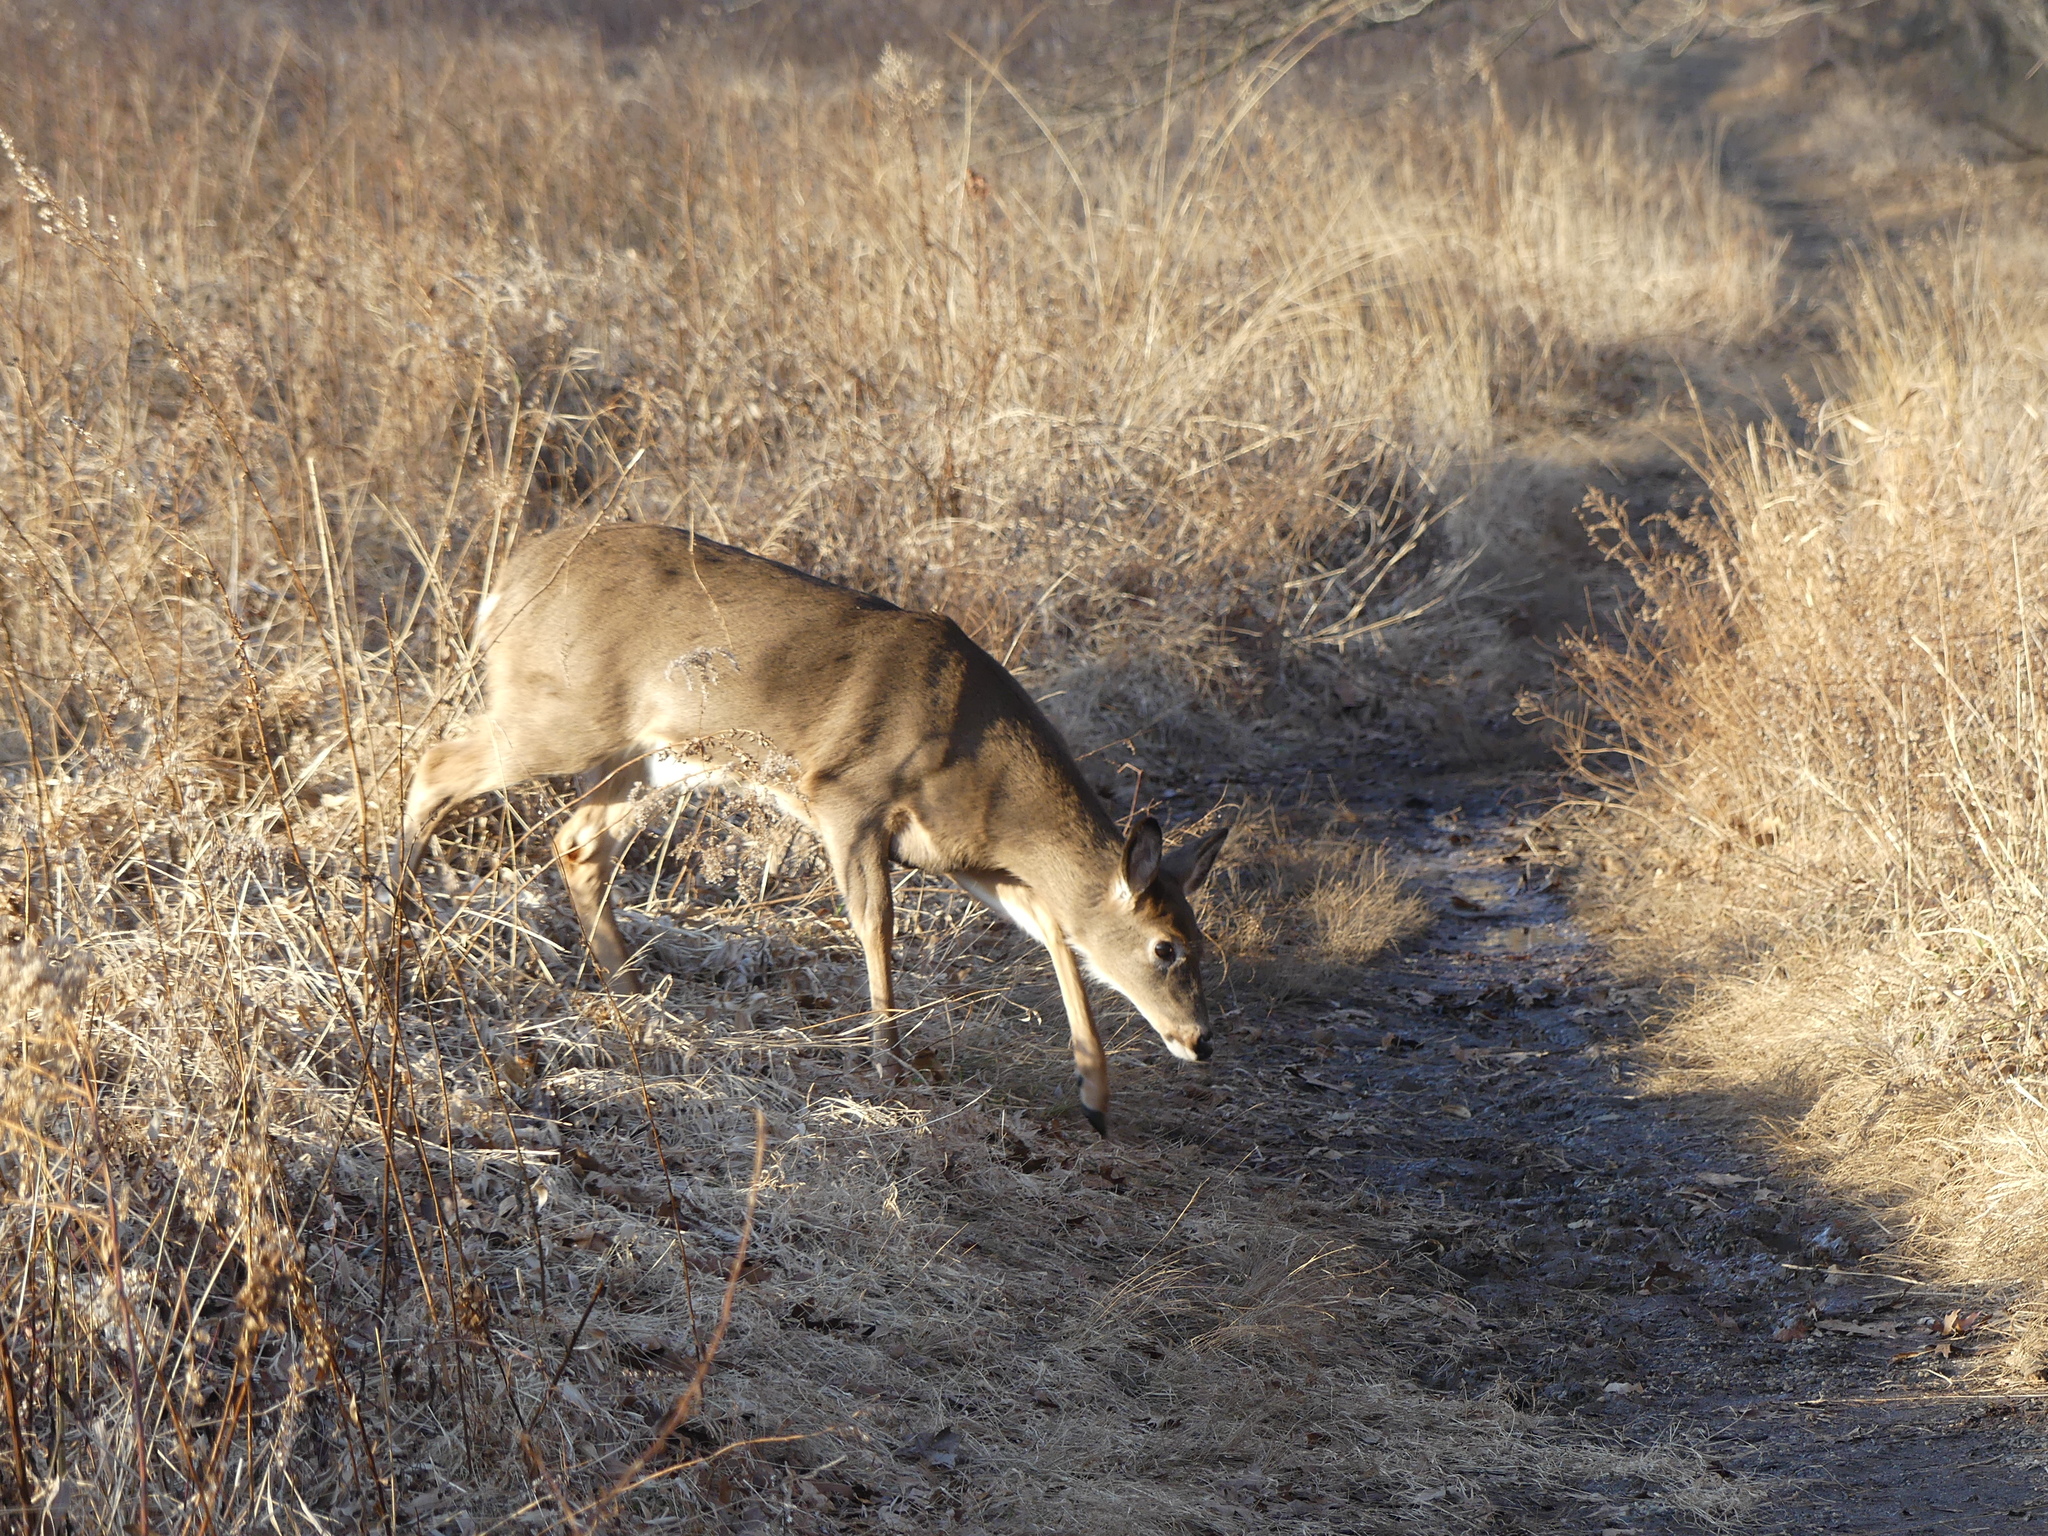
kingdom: Animalia
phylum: Chordata
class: Mammalia
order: Artiodactyla
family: Cervidae
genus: Odocoileus
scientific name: Odocoileus virginianus
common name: White-tailed deer
